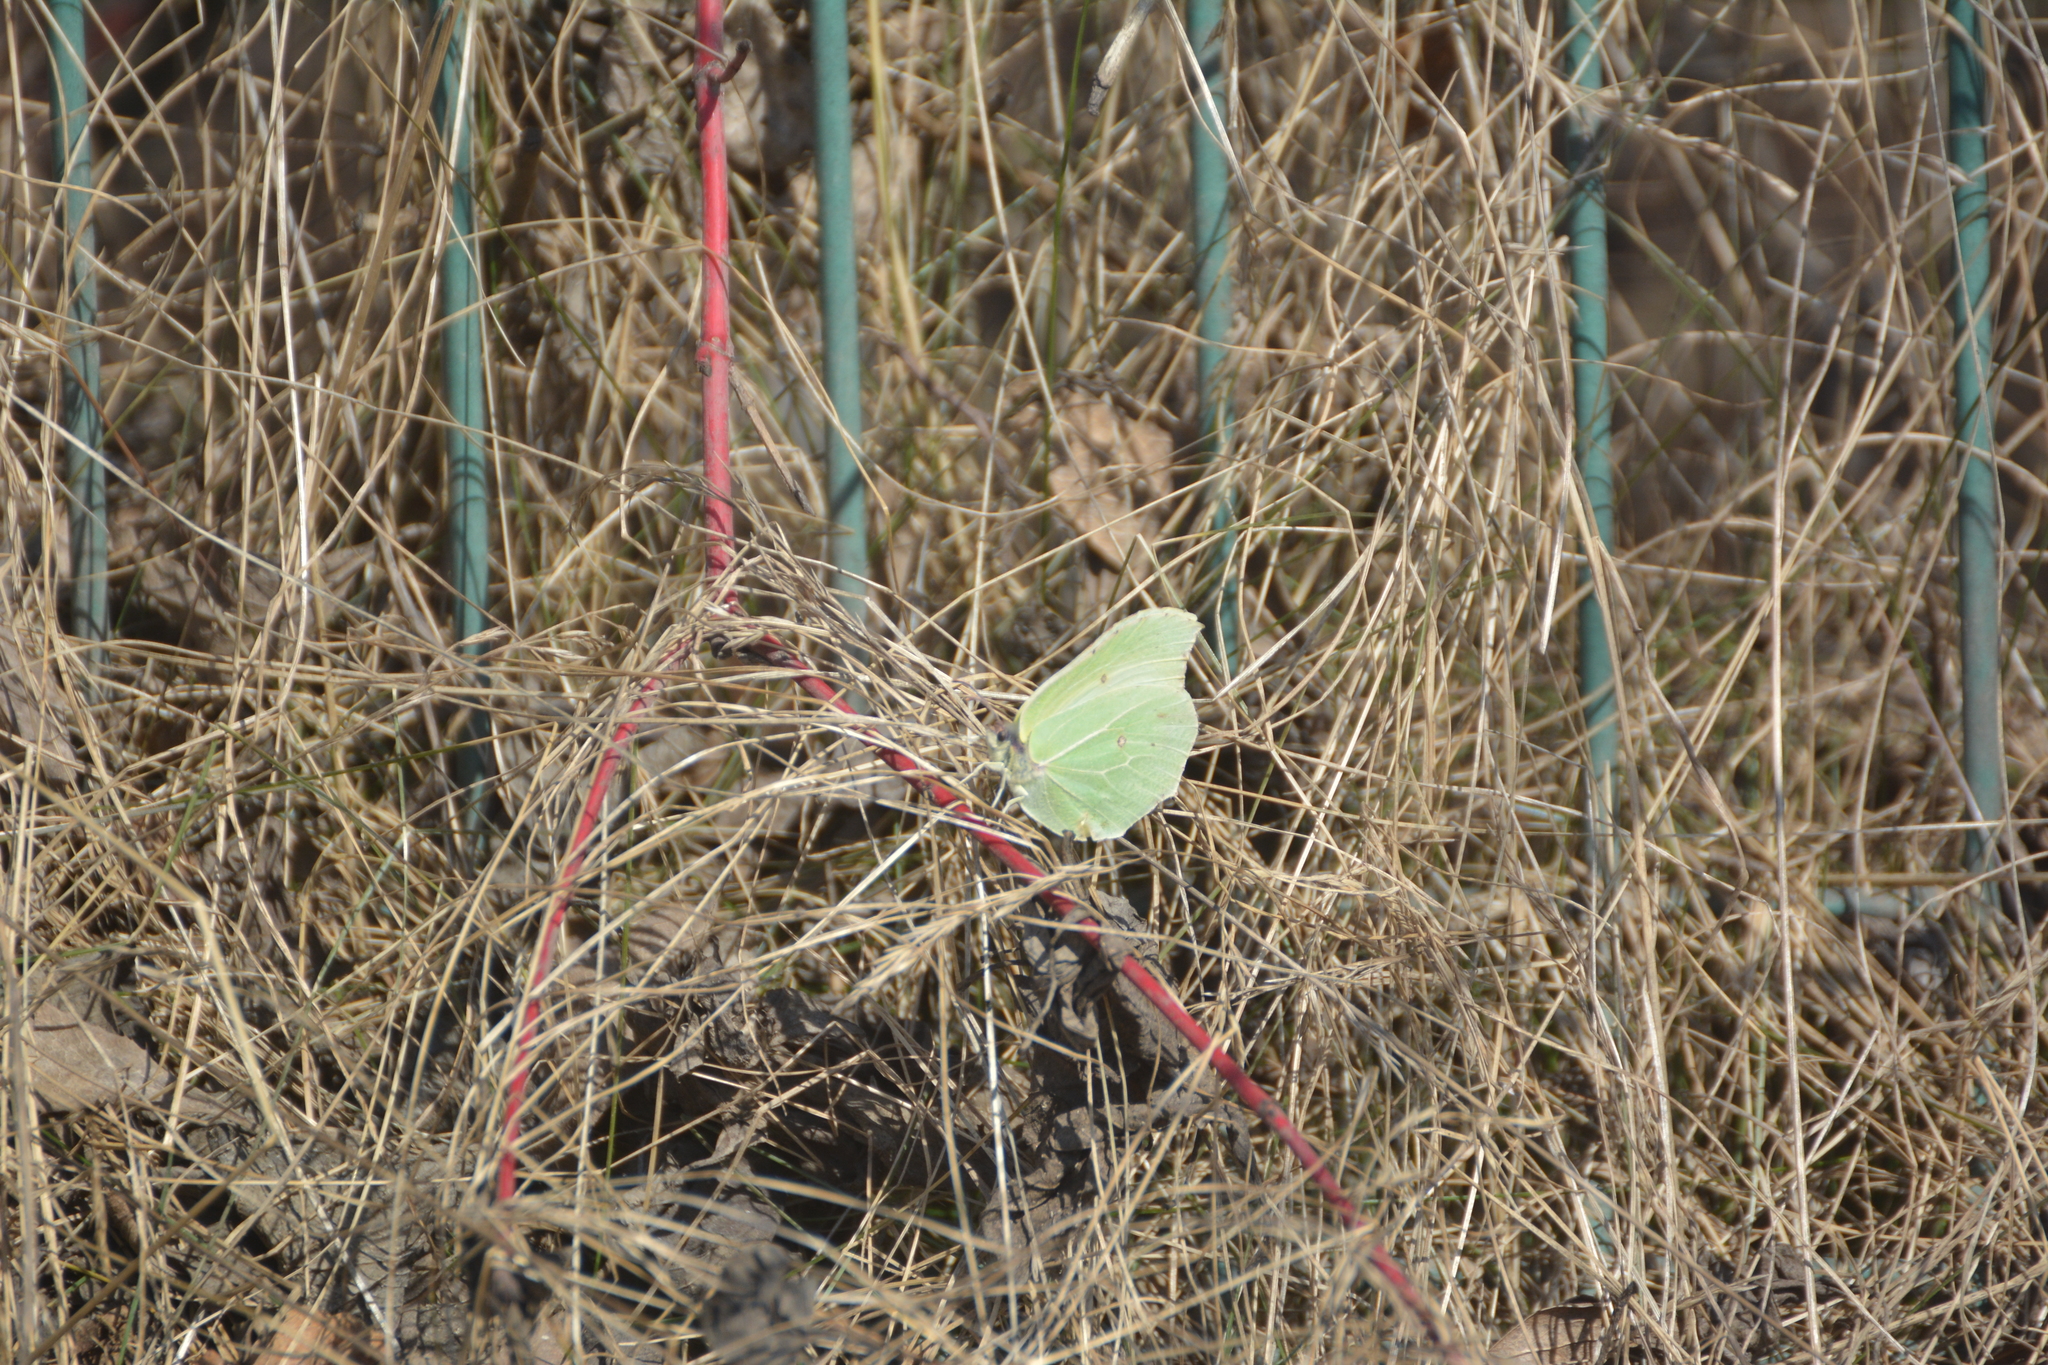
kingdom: Animalia
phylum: Arthropoda
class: Insecta
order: Lepidoptera
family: Pieridae
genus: Gonepteryx
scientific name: Gonepteryx rhamni
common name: Brimstone
